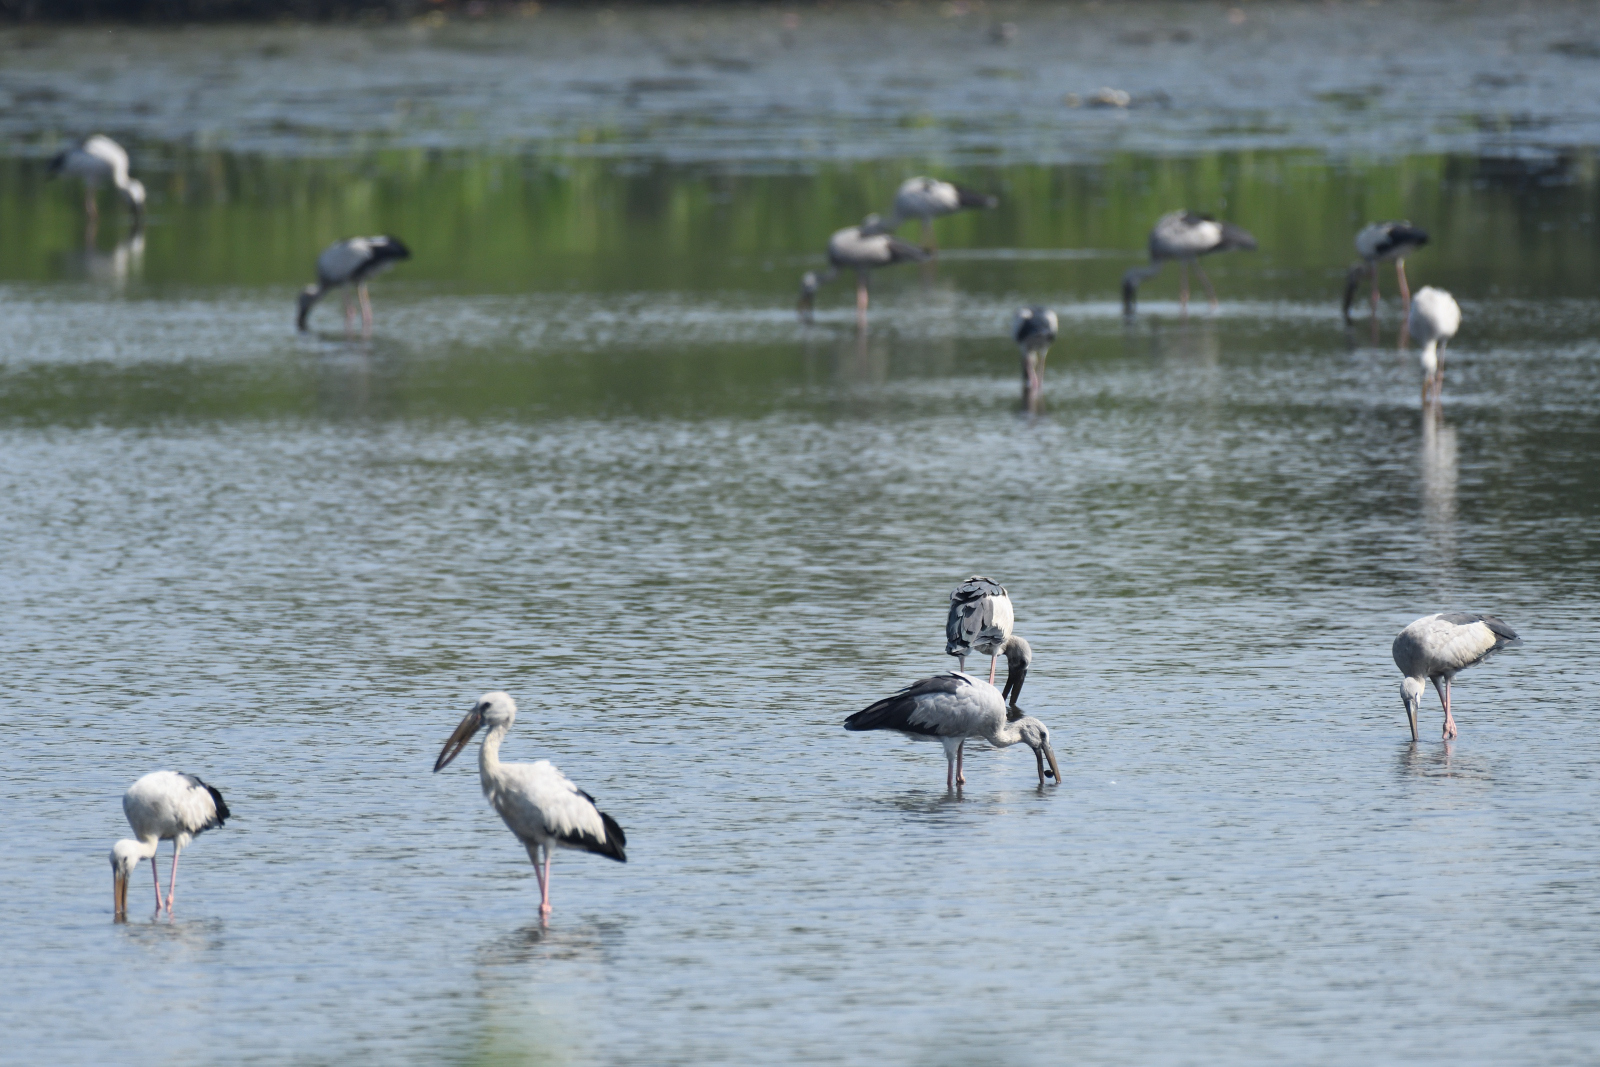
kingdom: Animalia
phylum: Chordata
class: Aves
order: Ciconiiformes
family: Ciconiidae
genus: Anastomus
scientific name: Anastomus oscitans
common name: Asian openbill
